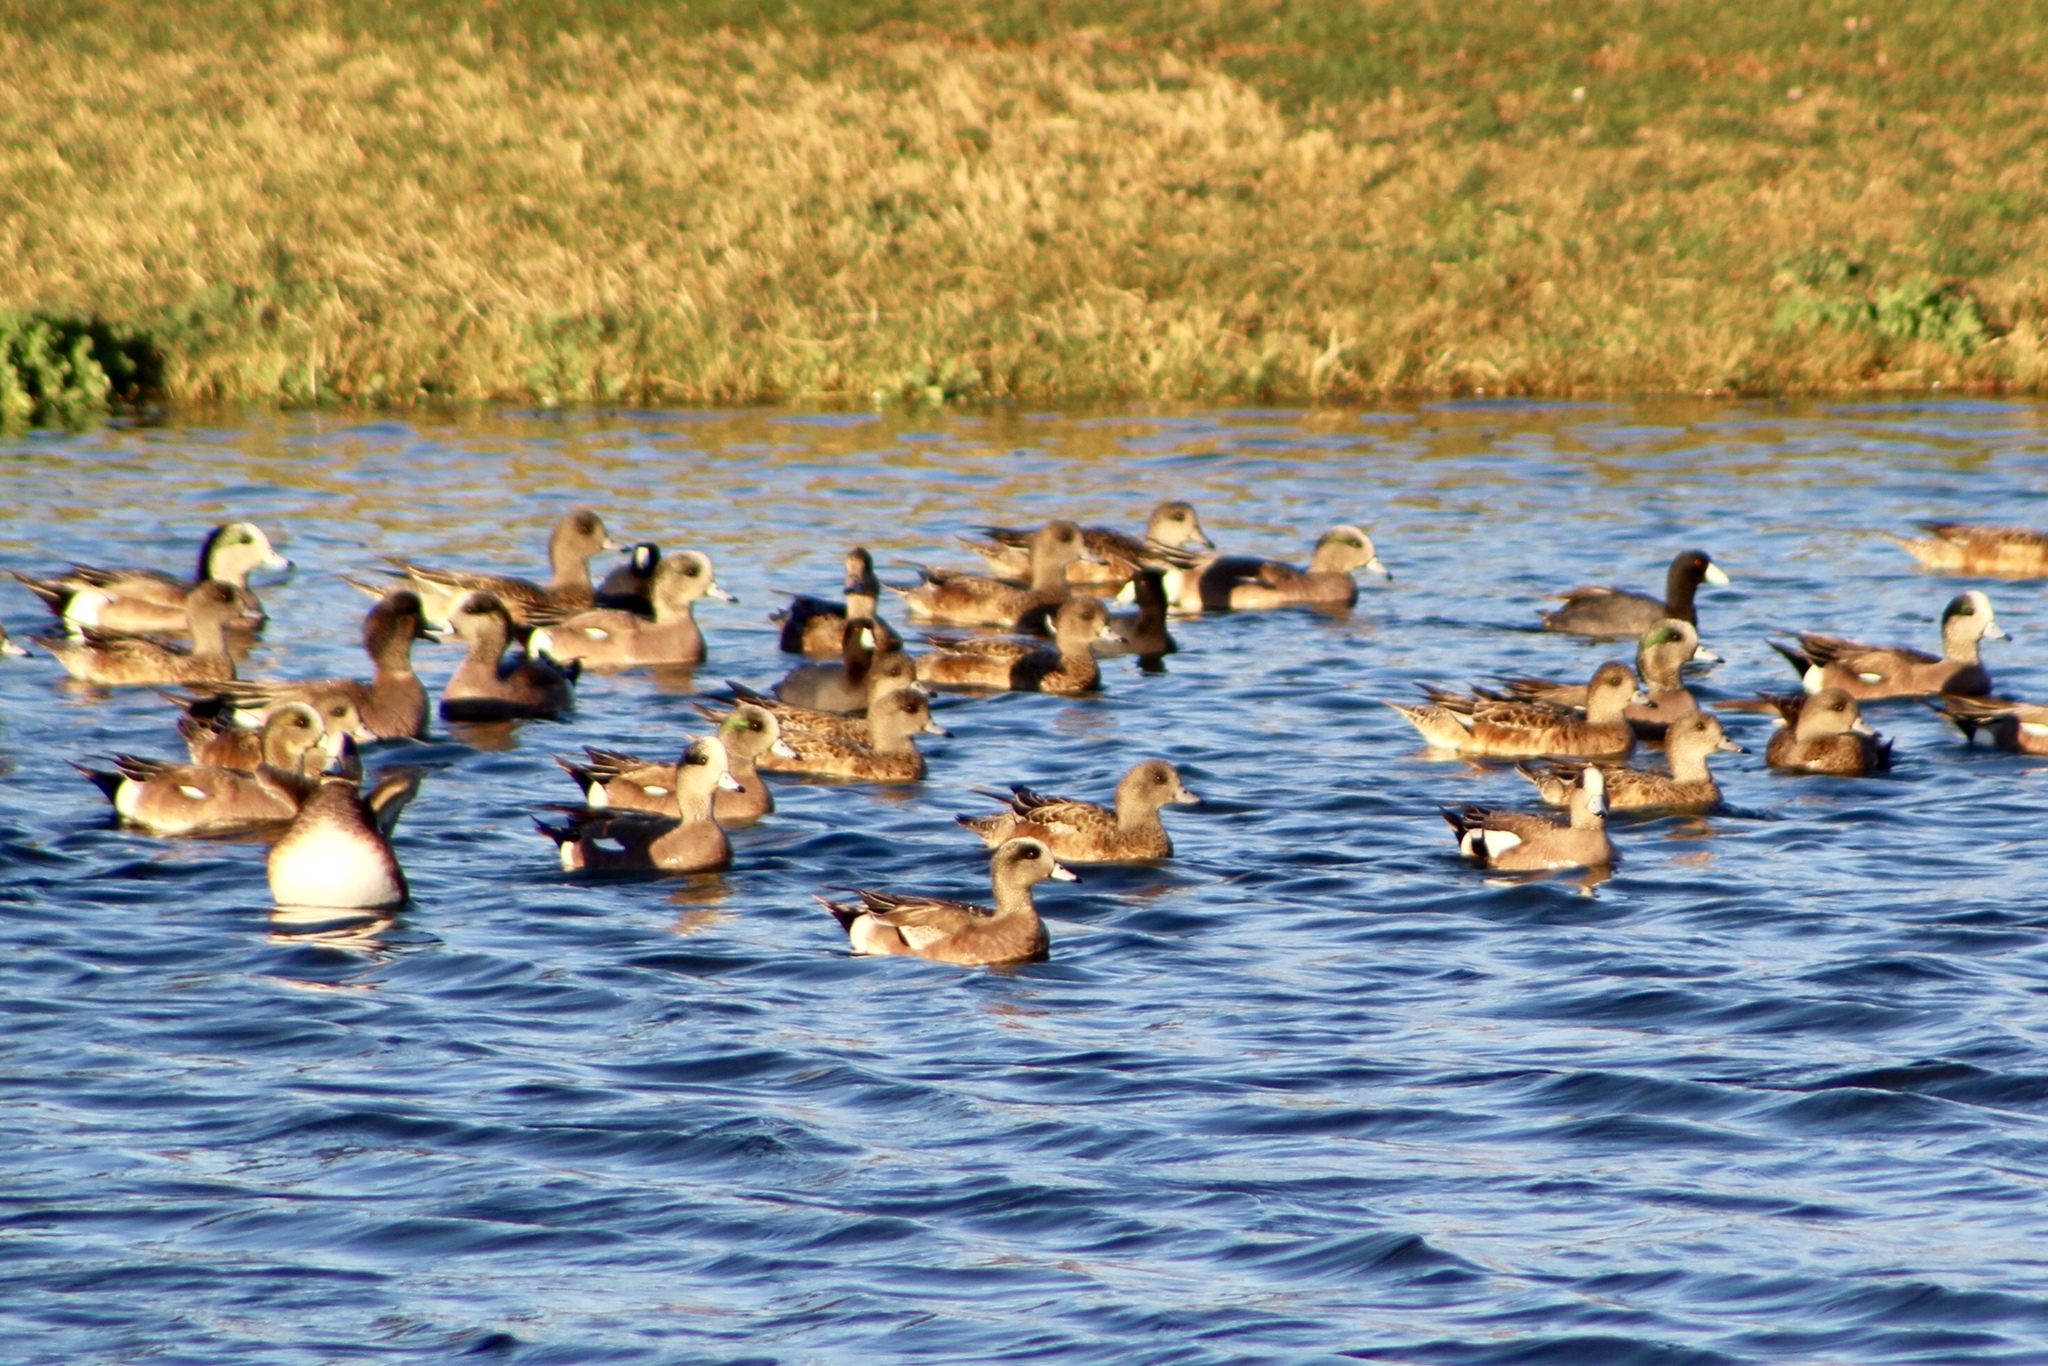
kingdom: Animalia
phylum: Chordata
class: Aves
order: Anseriformes
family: Anatidae
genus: Mareca
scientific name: Mareca americana
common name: American wigeon
